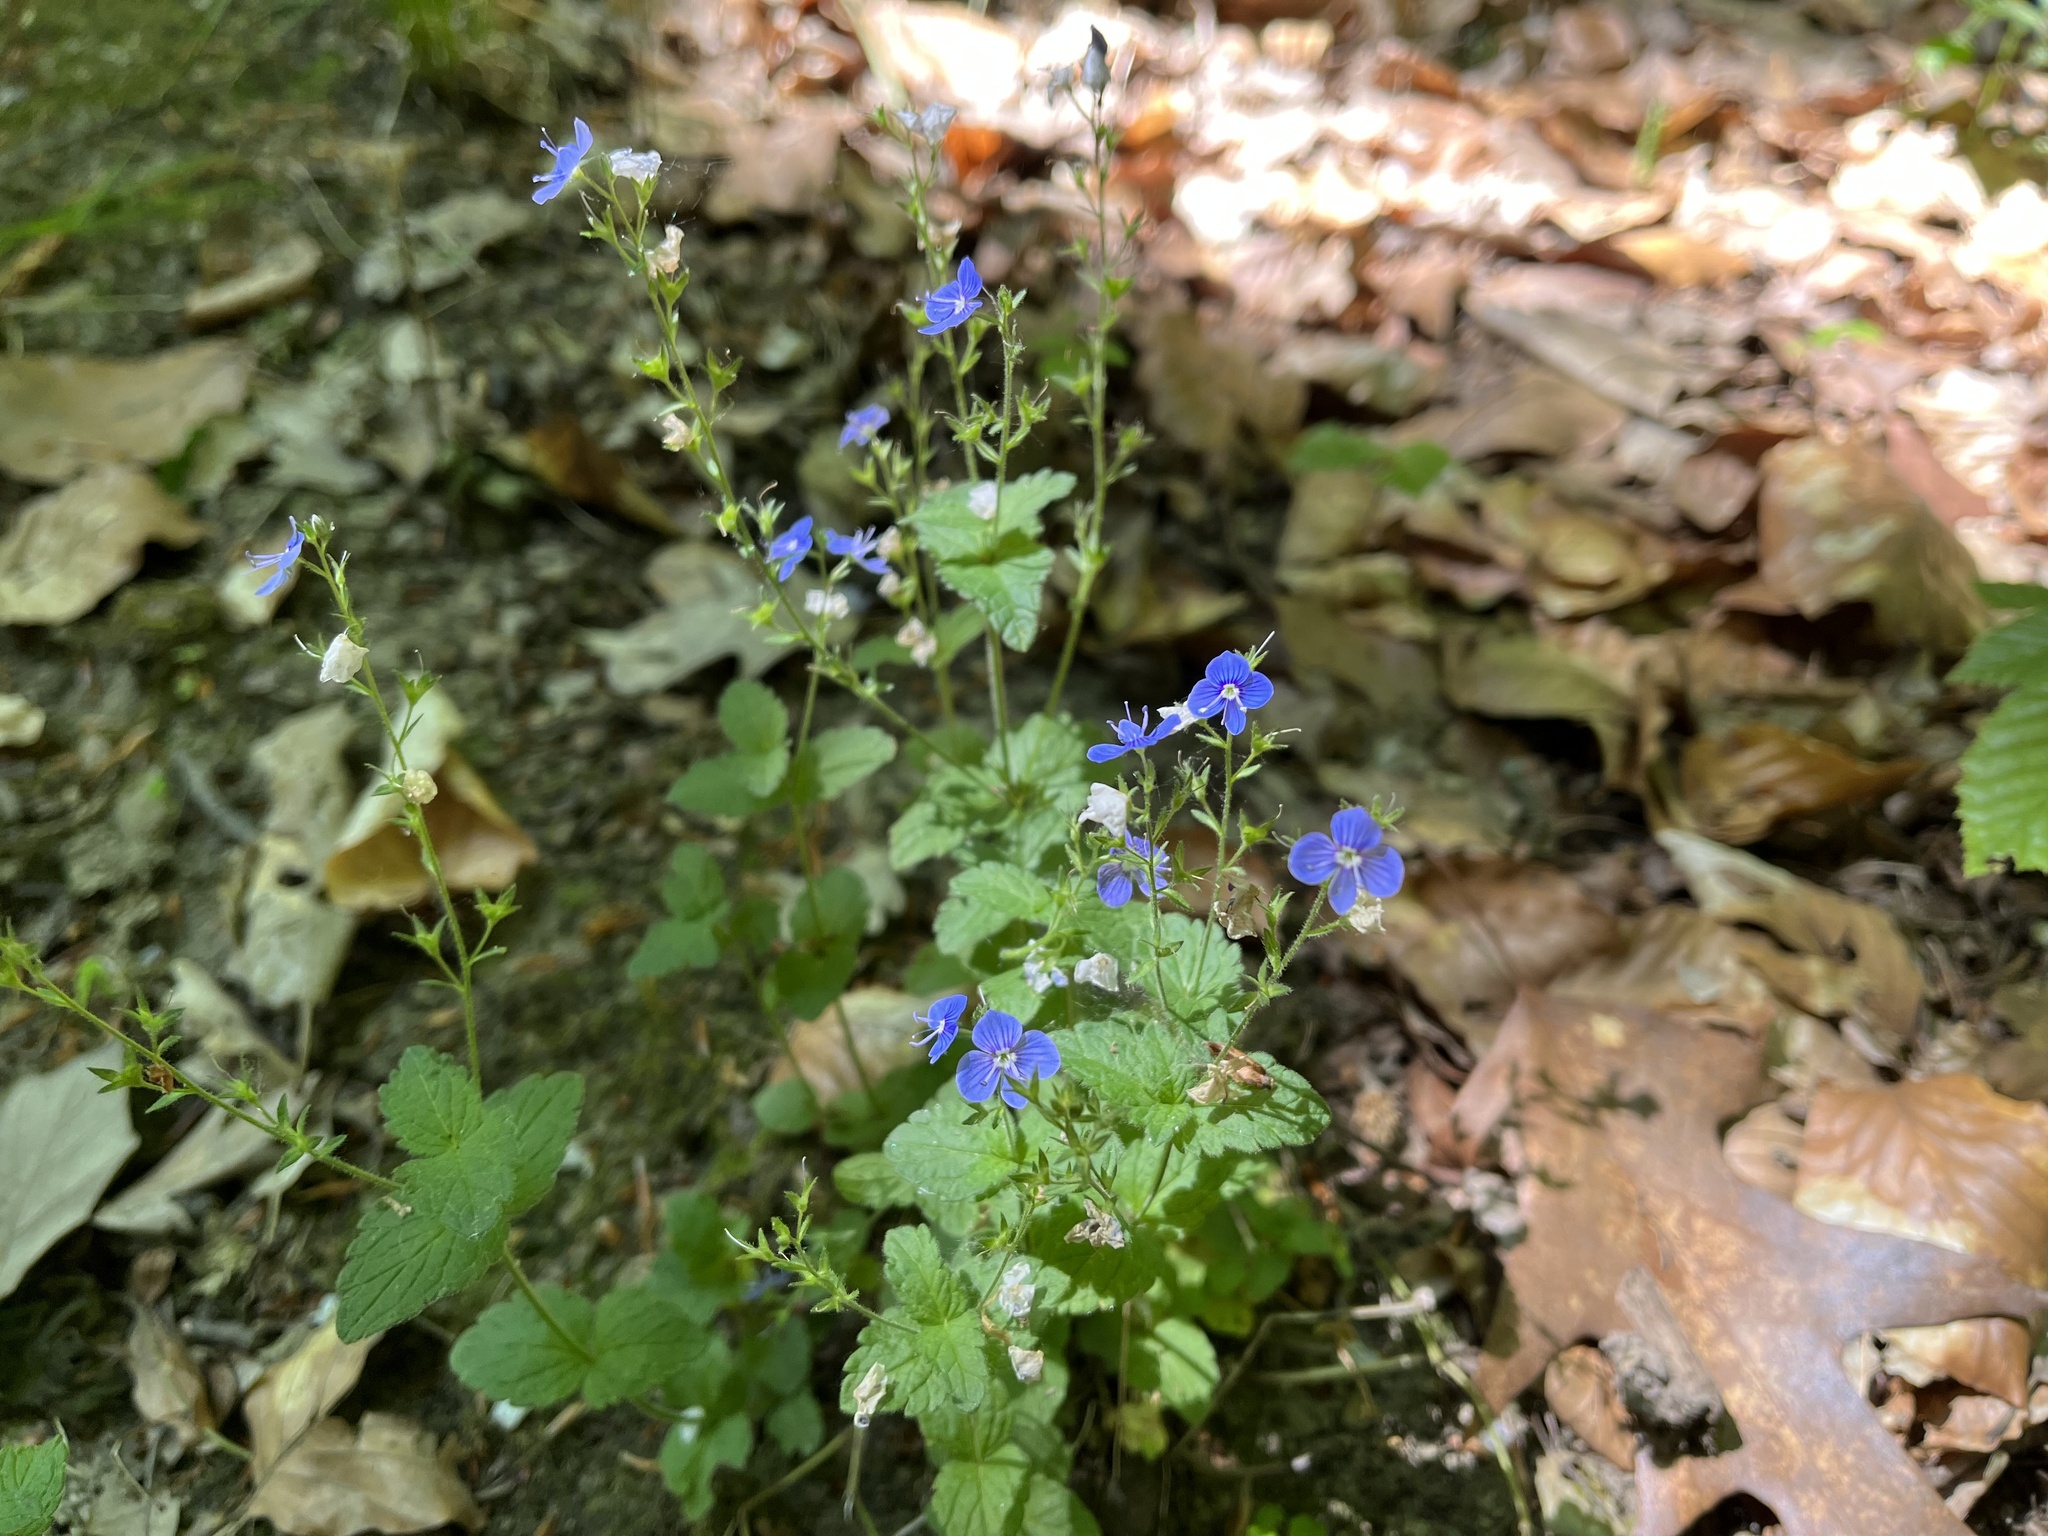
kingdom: Plantae
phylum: Tracheophyta
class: Magnoliopsida
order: Lamiales
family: Plantaginaceae
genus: Veronica
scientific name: Veronica chamaedrys
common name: Germander speedwell
